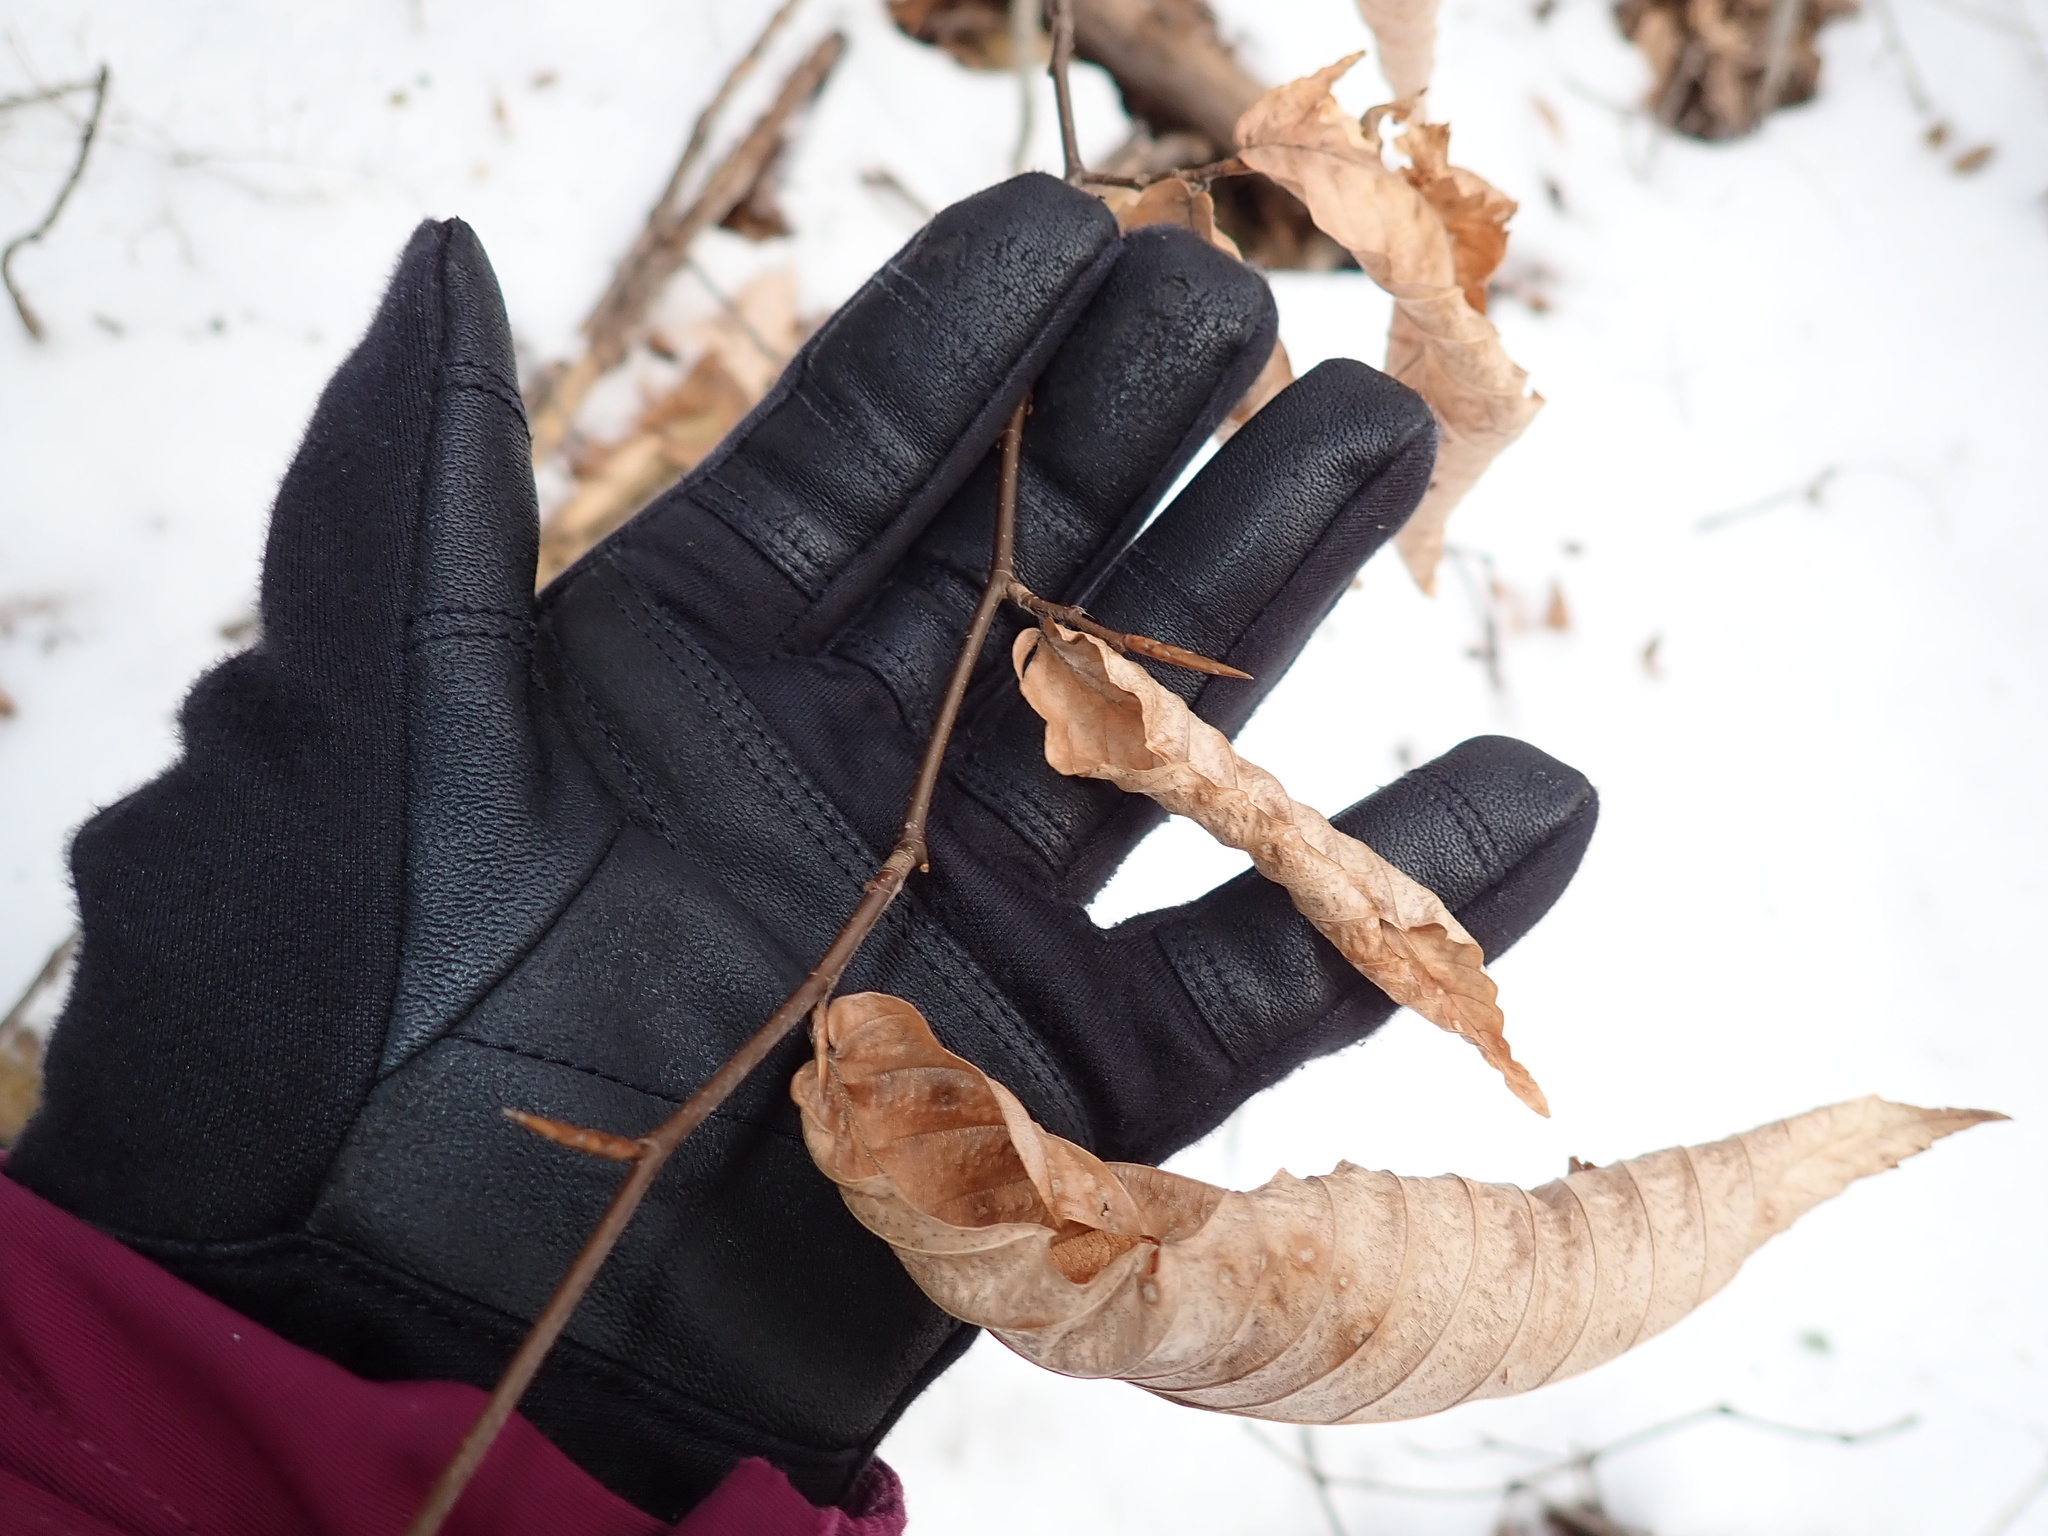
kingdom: Plantae
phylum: Tracheophyta
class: Magnoliopsida
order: Fagales
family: Fagaceae
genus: Fagus
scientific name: Fagus grandifolia
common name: American beech
